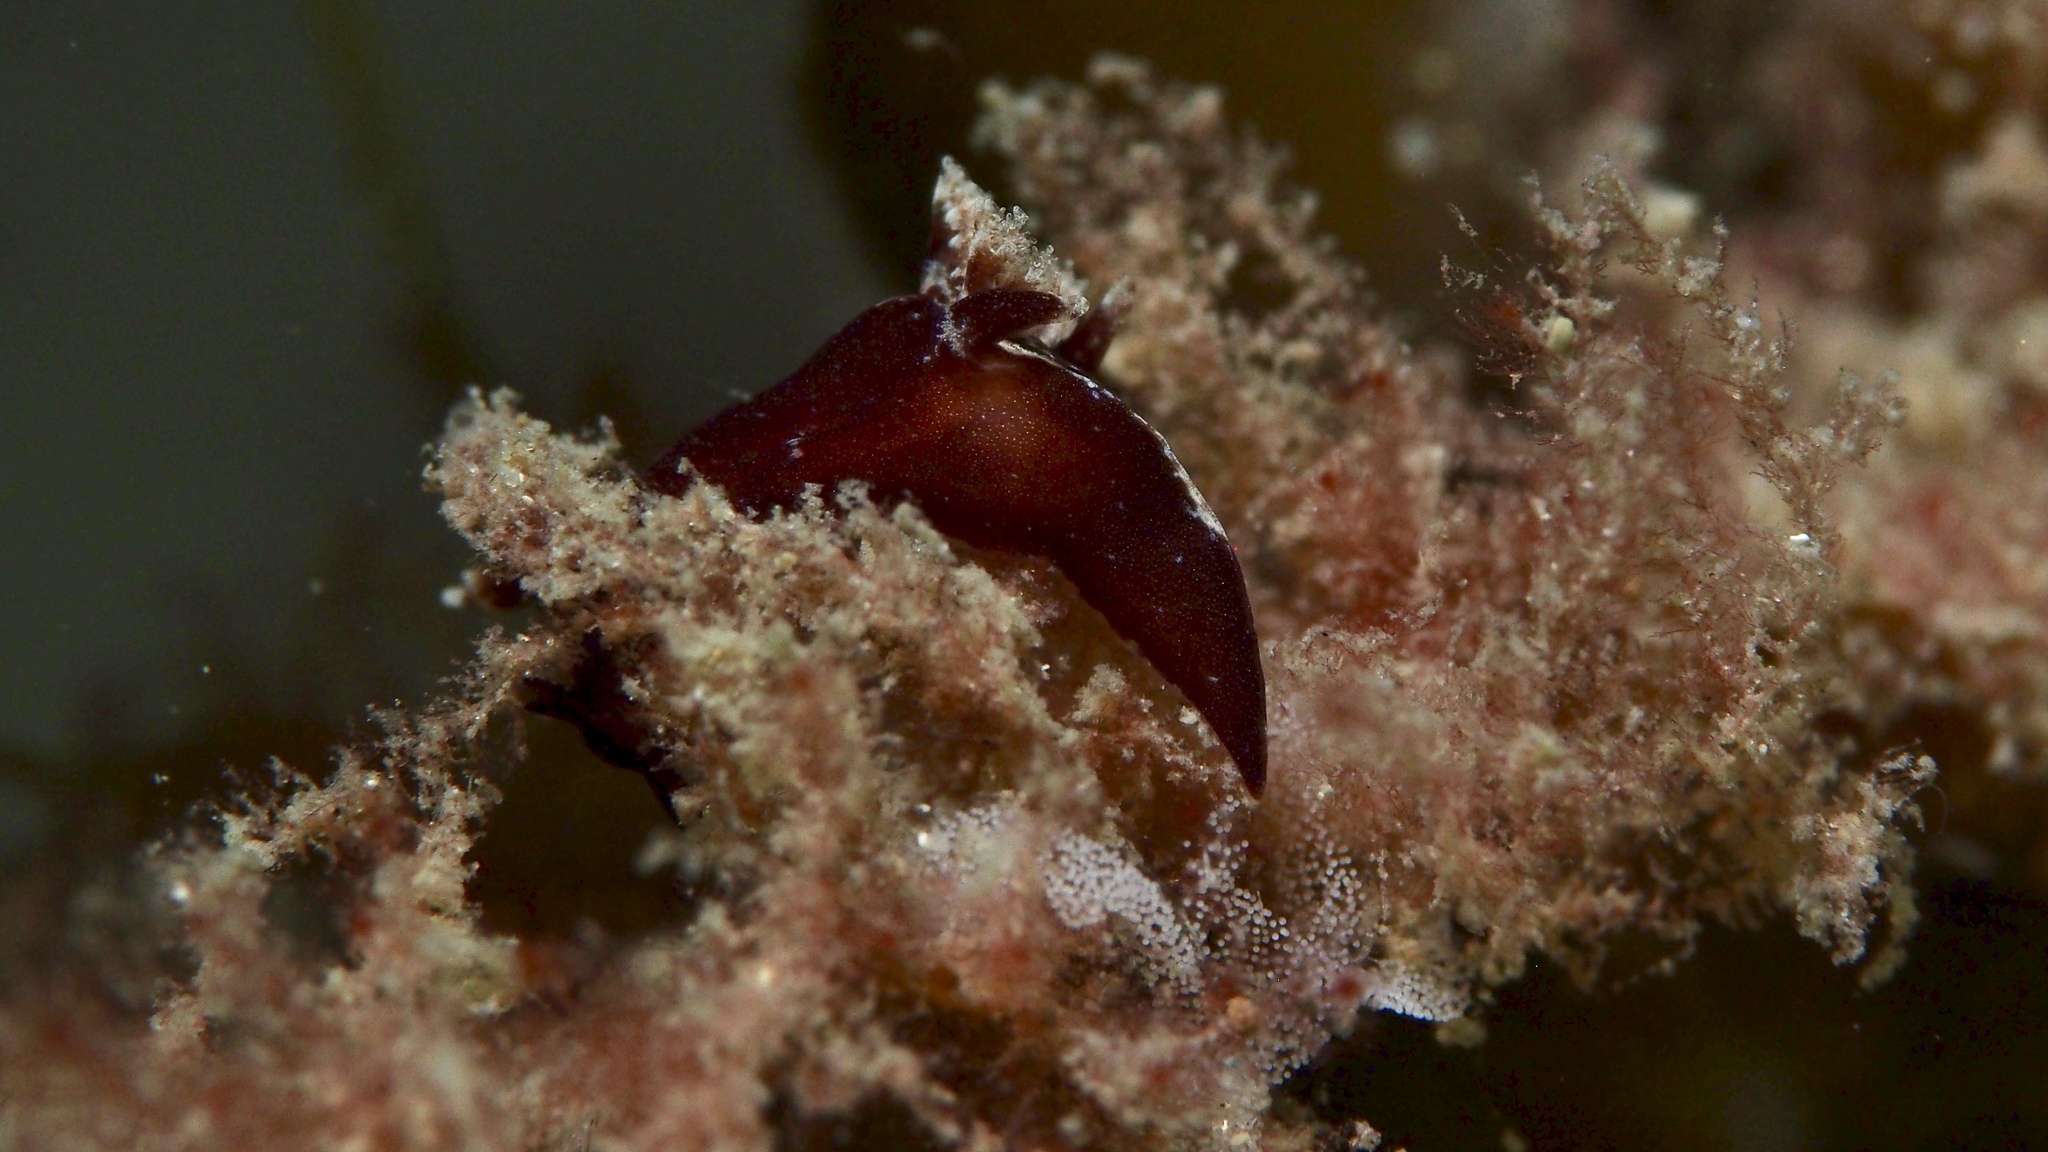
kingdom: Animalia
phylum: Mollusca
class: Gastropoda
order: Nudibranchia
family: Goniodorididae
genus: Trapania
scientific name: Trapania brunnea
